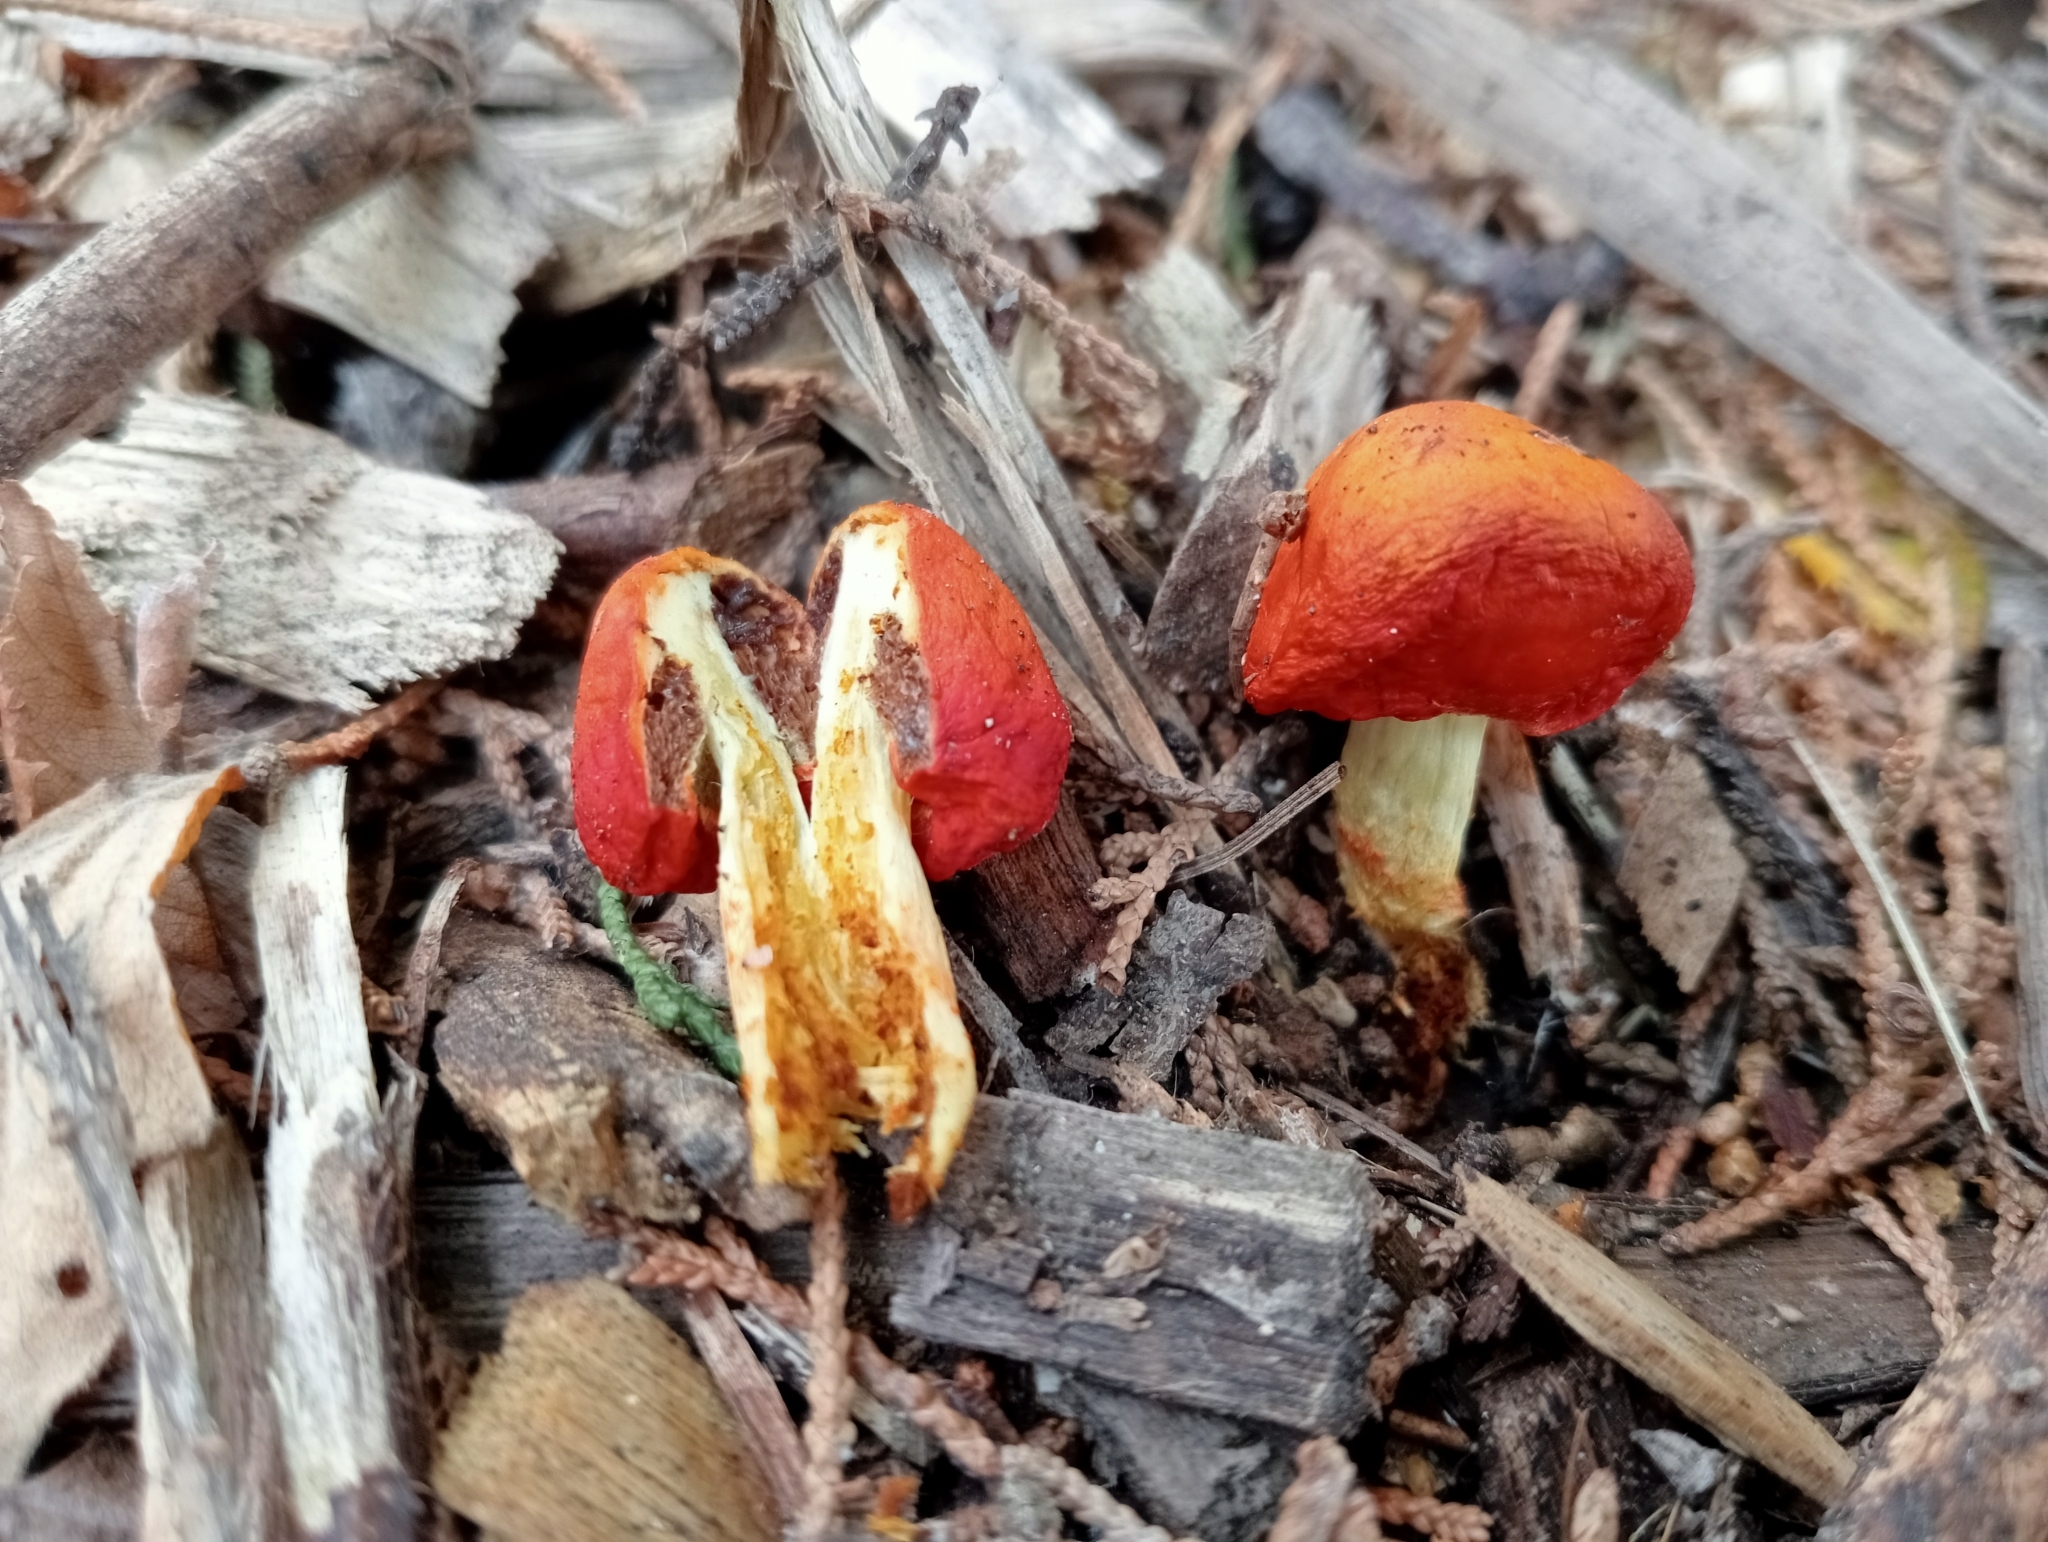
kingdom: Fungi
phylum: Basidiomycota
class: Agaricomycetes
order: Agaricales
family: Strophariaceae
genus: Leratiomyces
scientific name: Leratiomyces erythrocephalus
